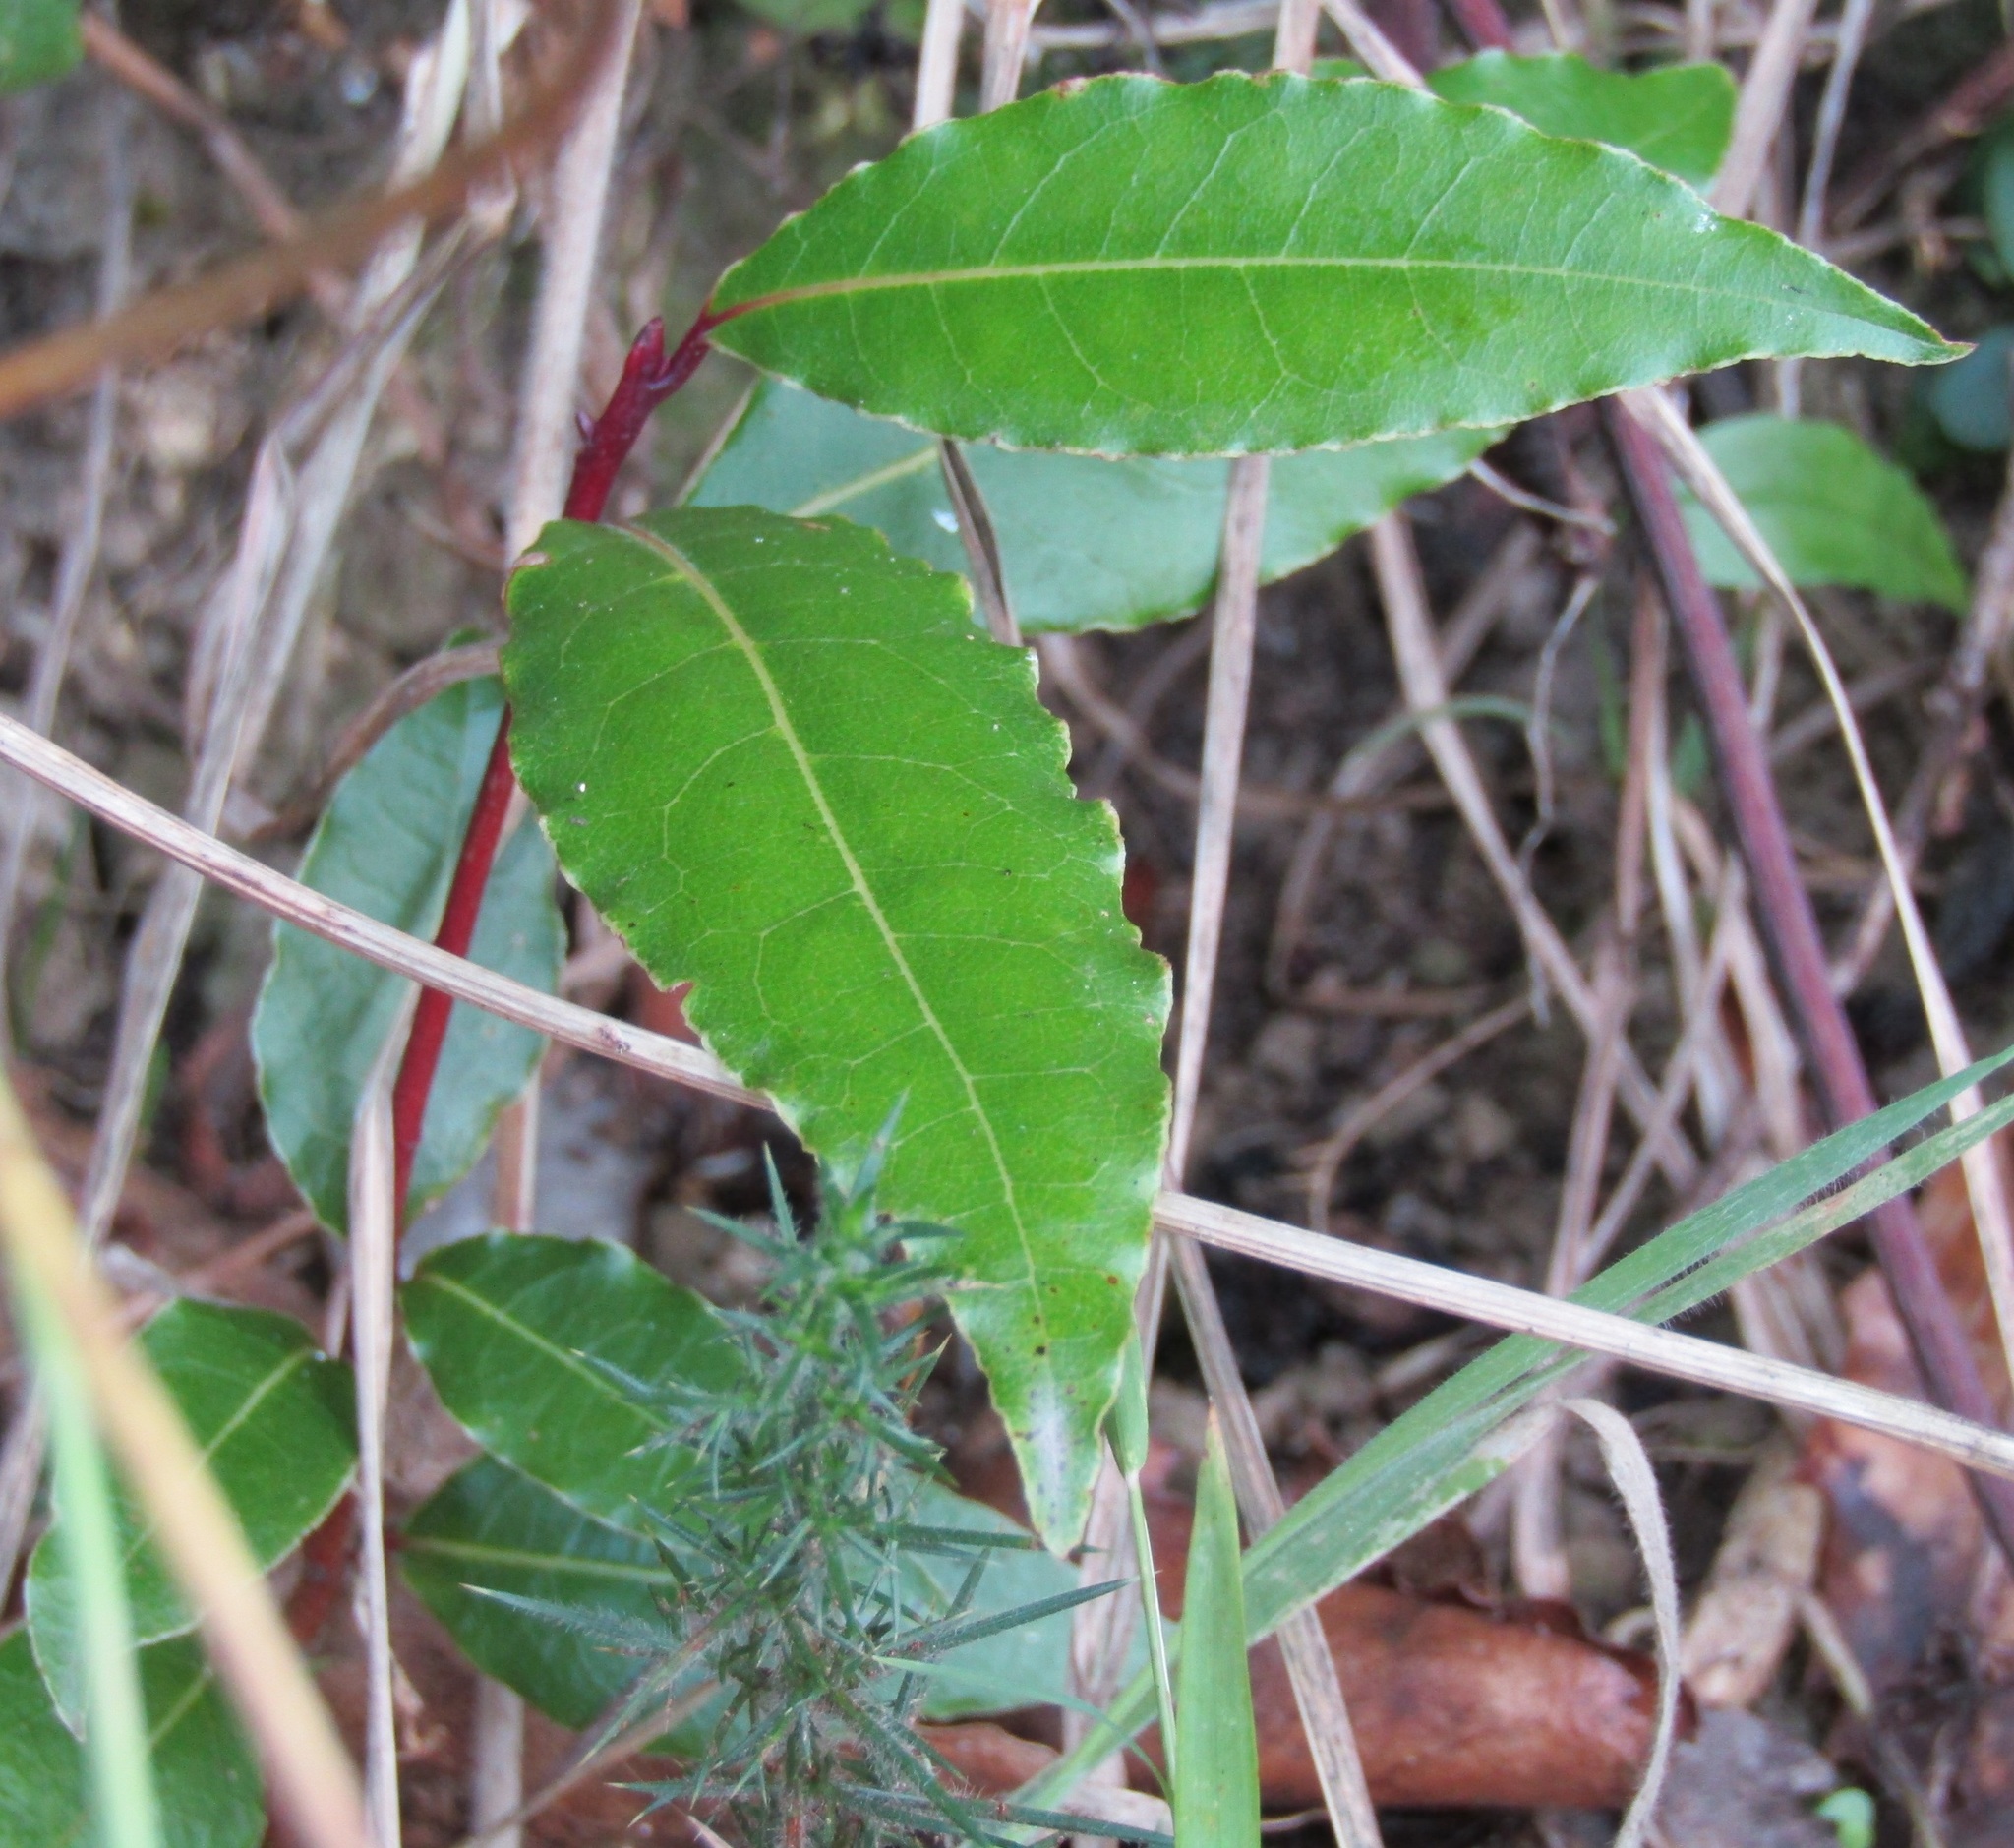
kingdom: Plantae
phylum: Tracheophyta
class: Magnoliopsida
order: Laurales
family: Lauraceae
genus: Laurus
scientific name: Laurus nobilis
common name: Bay
